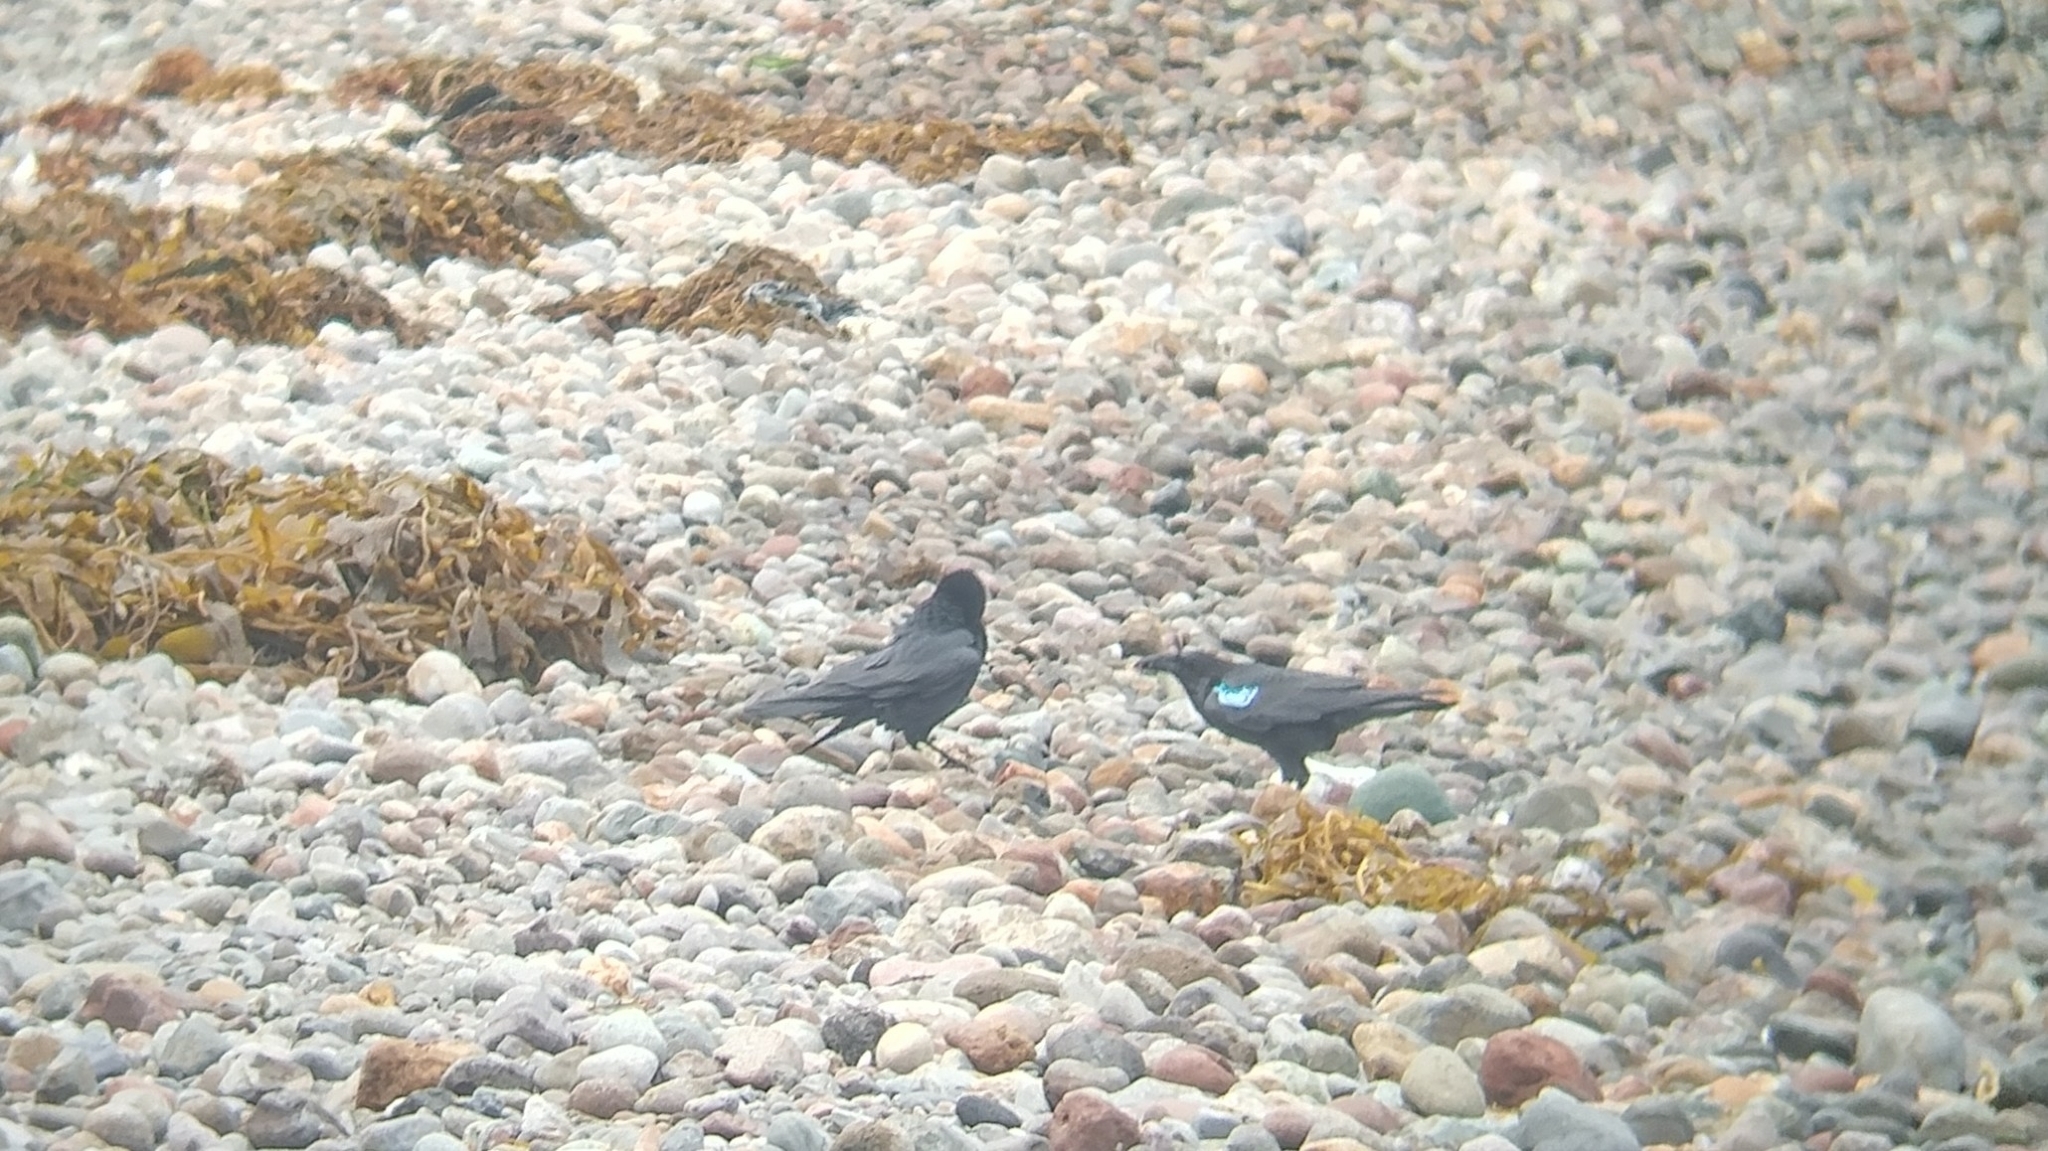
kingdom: Animalia
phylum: Chordata
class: Aves
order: Passeriformes
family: Corvidae
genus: Corvus
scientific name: Corvus corax
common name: Common raven
